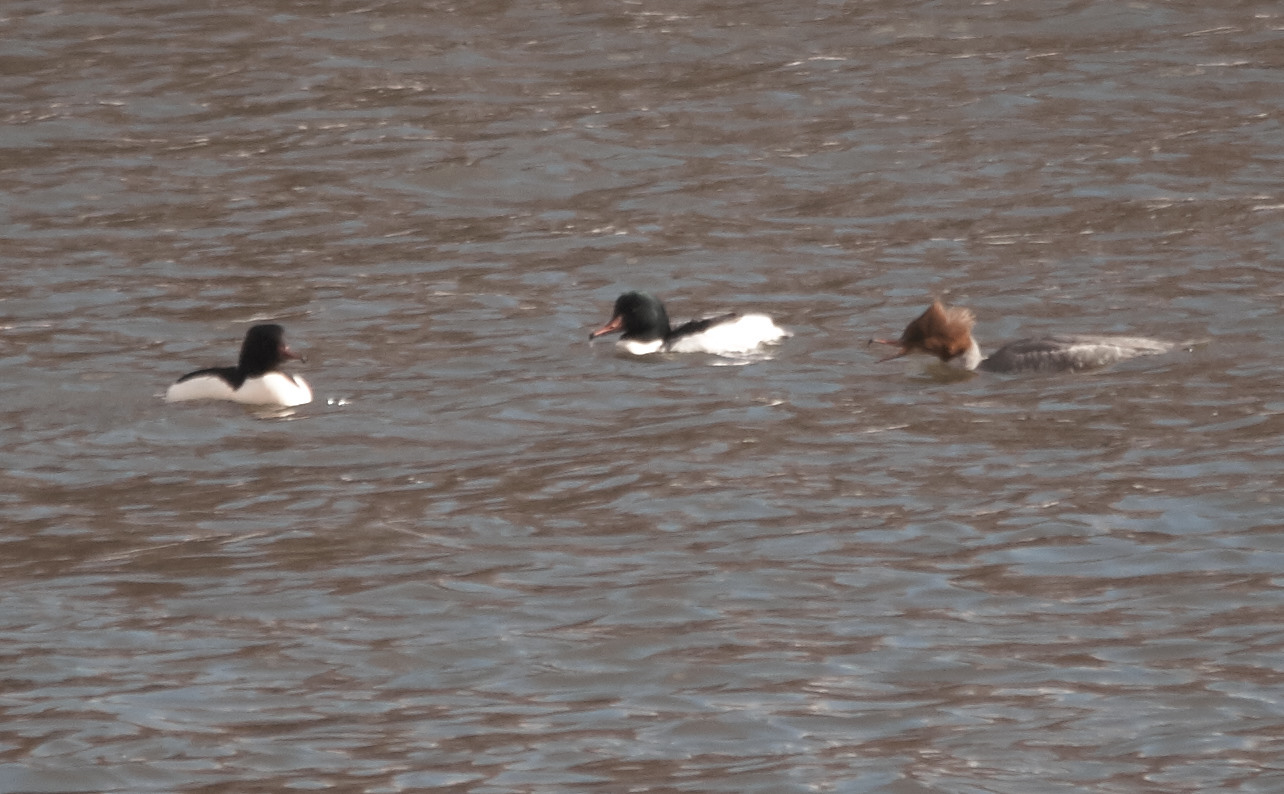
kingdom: Animalia
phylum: Chordata
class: Aves
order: Anseriformes
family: Anatidae
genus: Mergus
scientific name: Mergus merganser
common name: Common merganser
